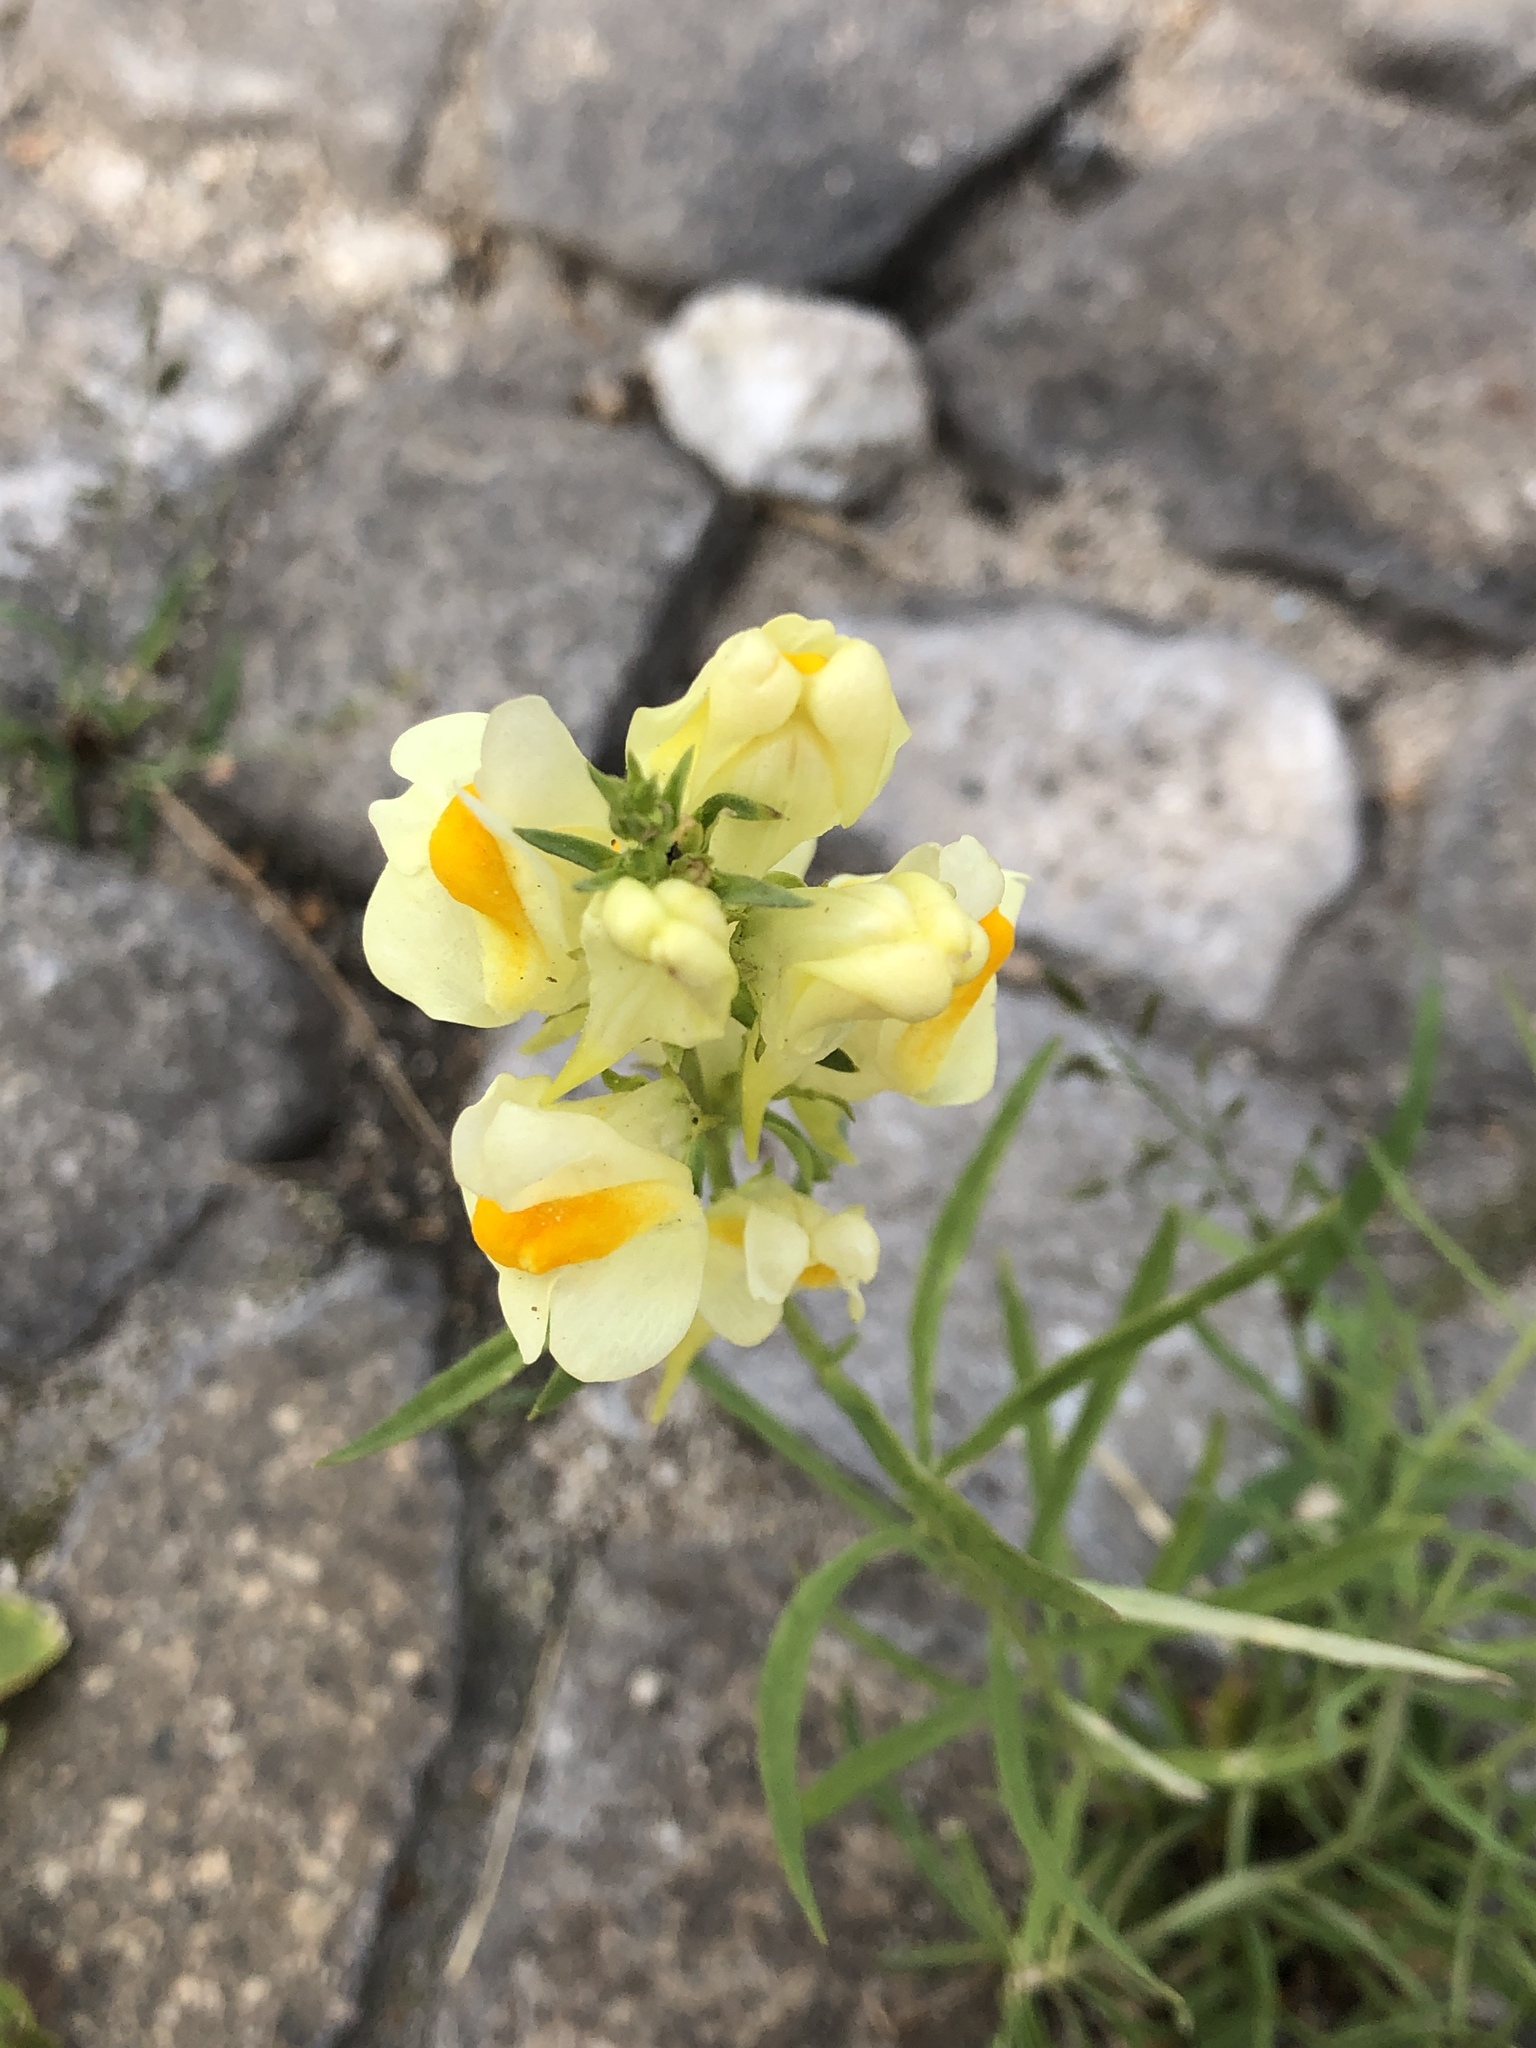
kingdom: Plantae
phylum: Tracheophyta
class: Magnoliopsida
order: Lamiales
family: Plantaginaceae
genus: Linaria
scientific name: Linaria vulgaris
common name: Butter and eggs
